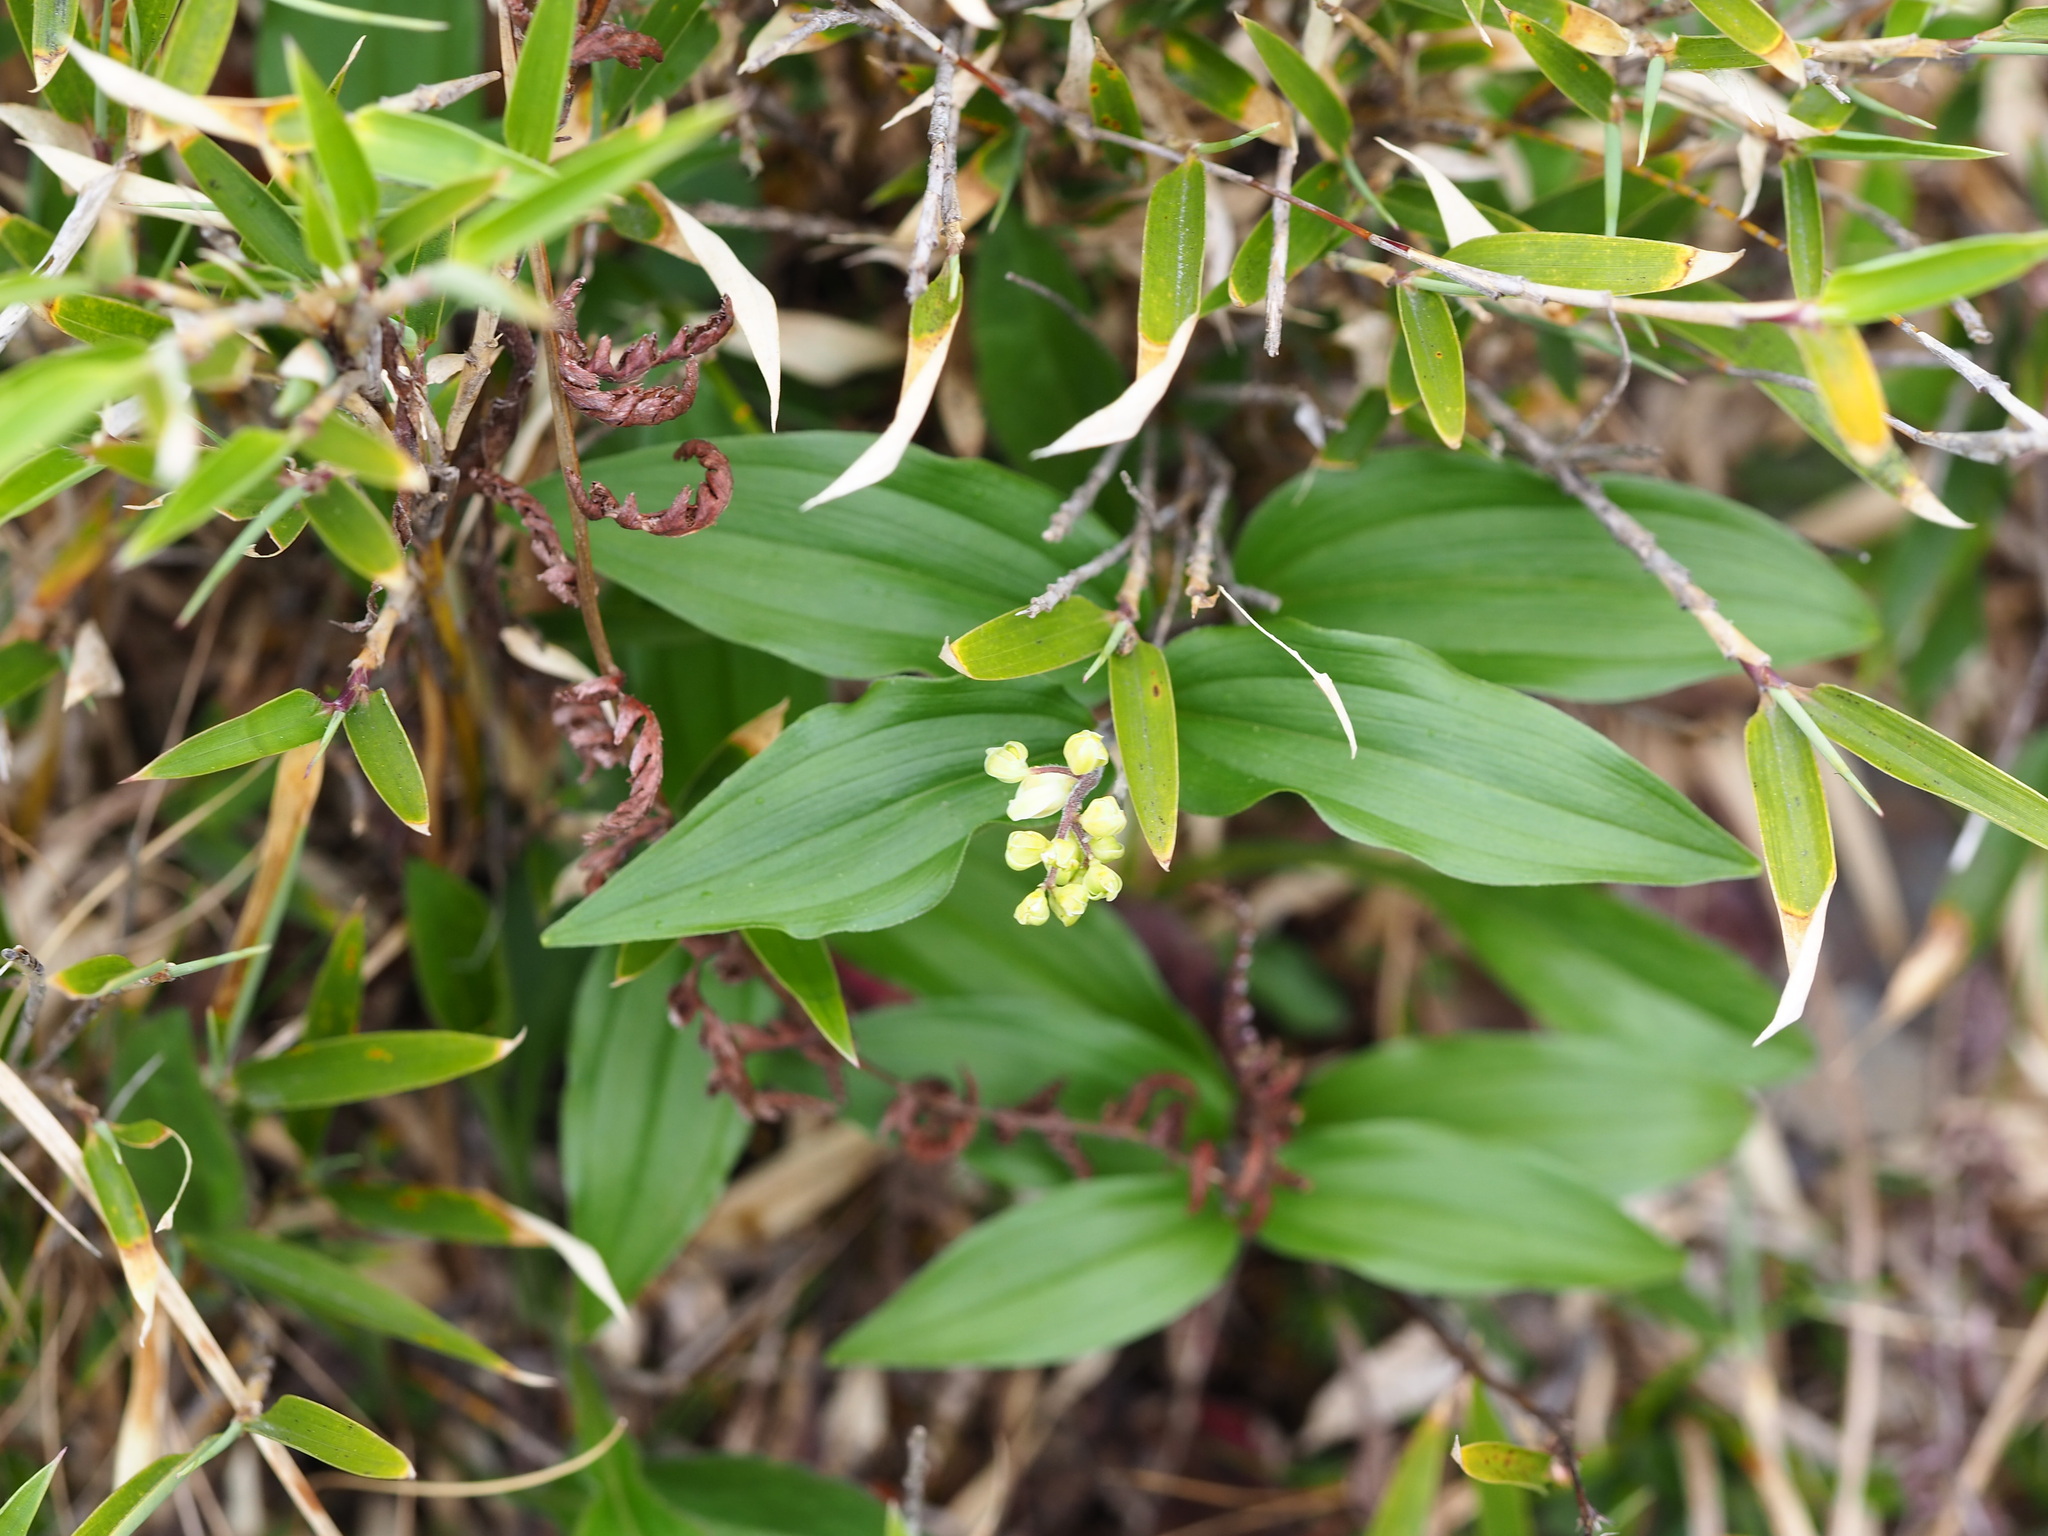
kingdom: Plantae
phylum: Tracheophyta
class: Liliopsida
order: Asparagales
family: Asparagaceae
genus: Maianthemum
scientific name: Maianthemum formosanum
